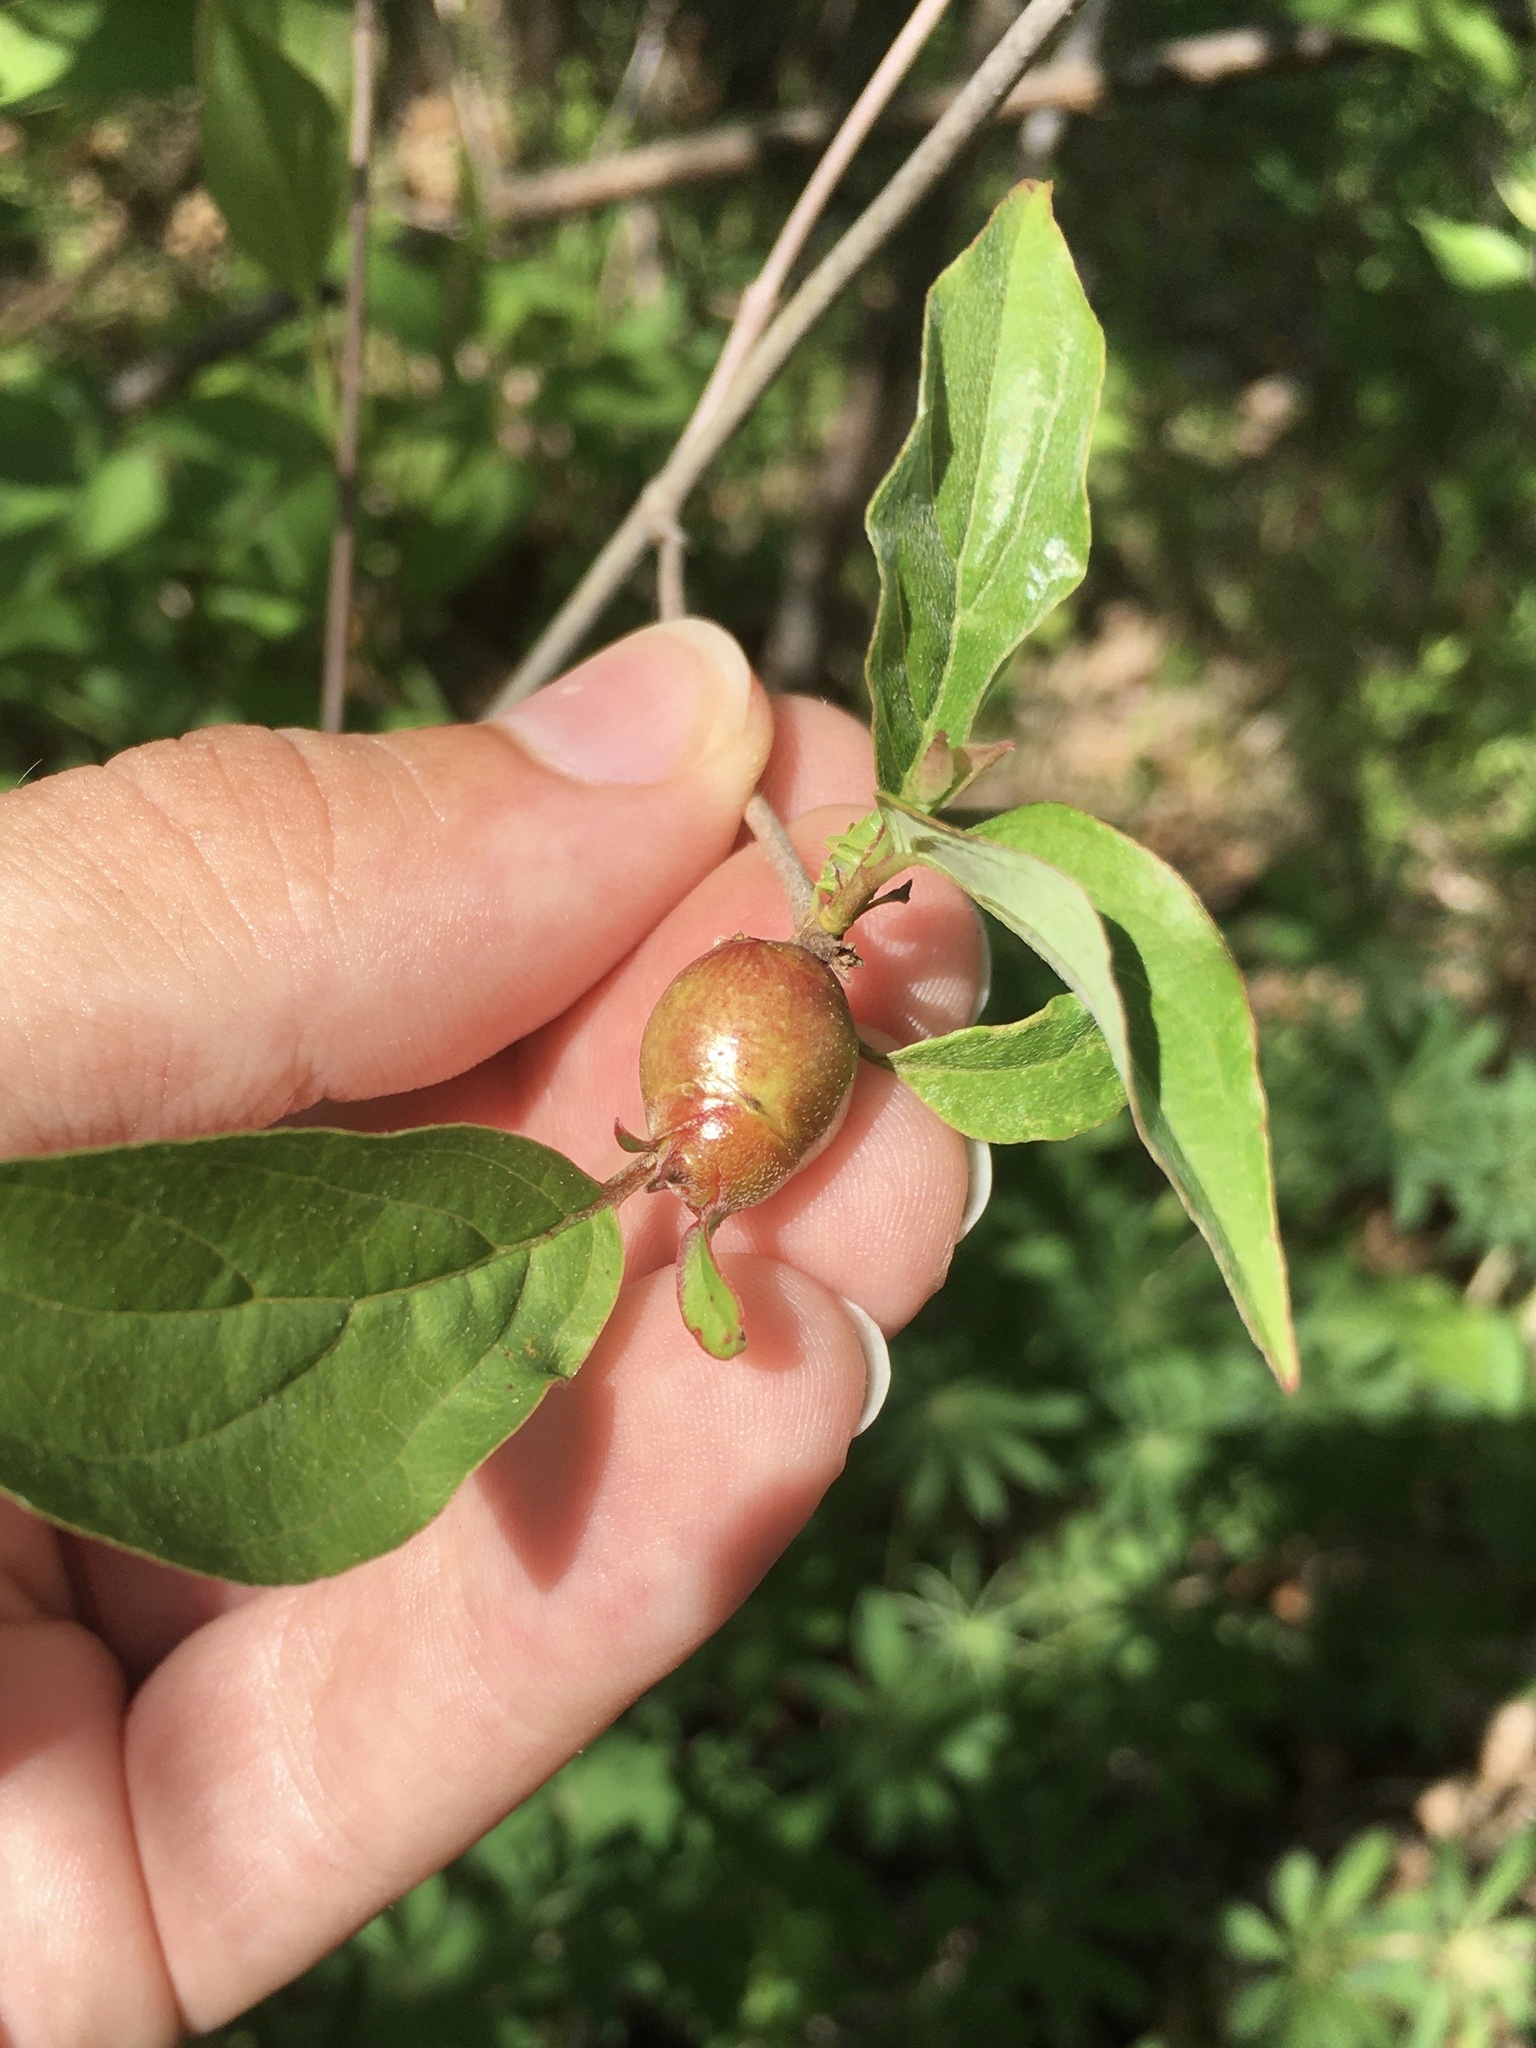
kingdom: Animalia
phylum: Arthropoda
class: Insecta
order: Diptera
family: Cecidomyiidae
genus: Resseliella
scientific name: Resseliella clavula
